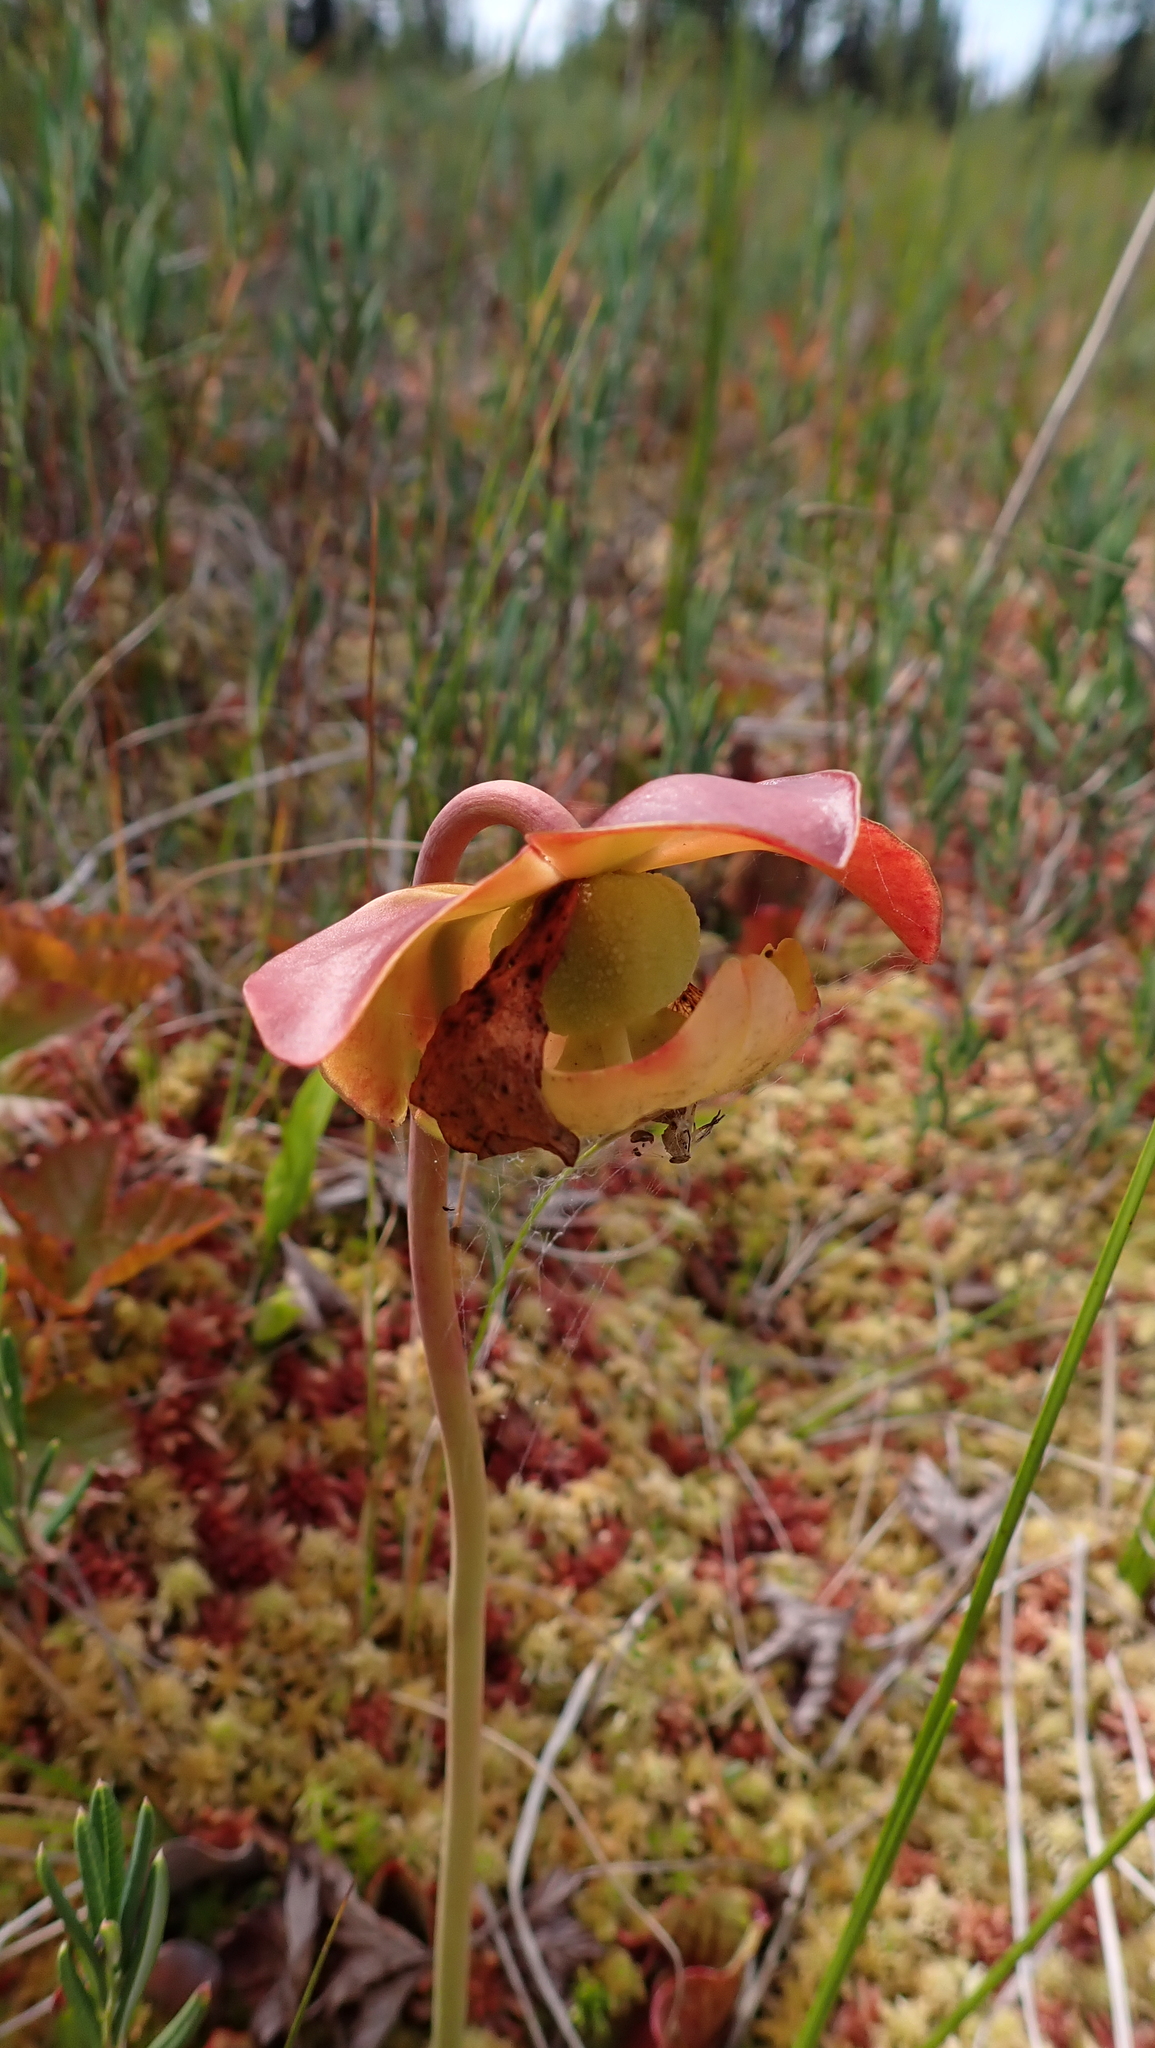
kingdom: Plantae
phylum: Tracheophyta
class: Magnoliopsida
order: Ericales
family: Sarraceniaceae
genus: Sarracenia
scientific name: Sarracenia purpurea
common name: Pitcherplant
